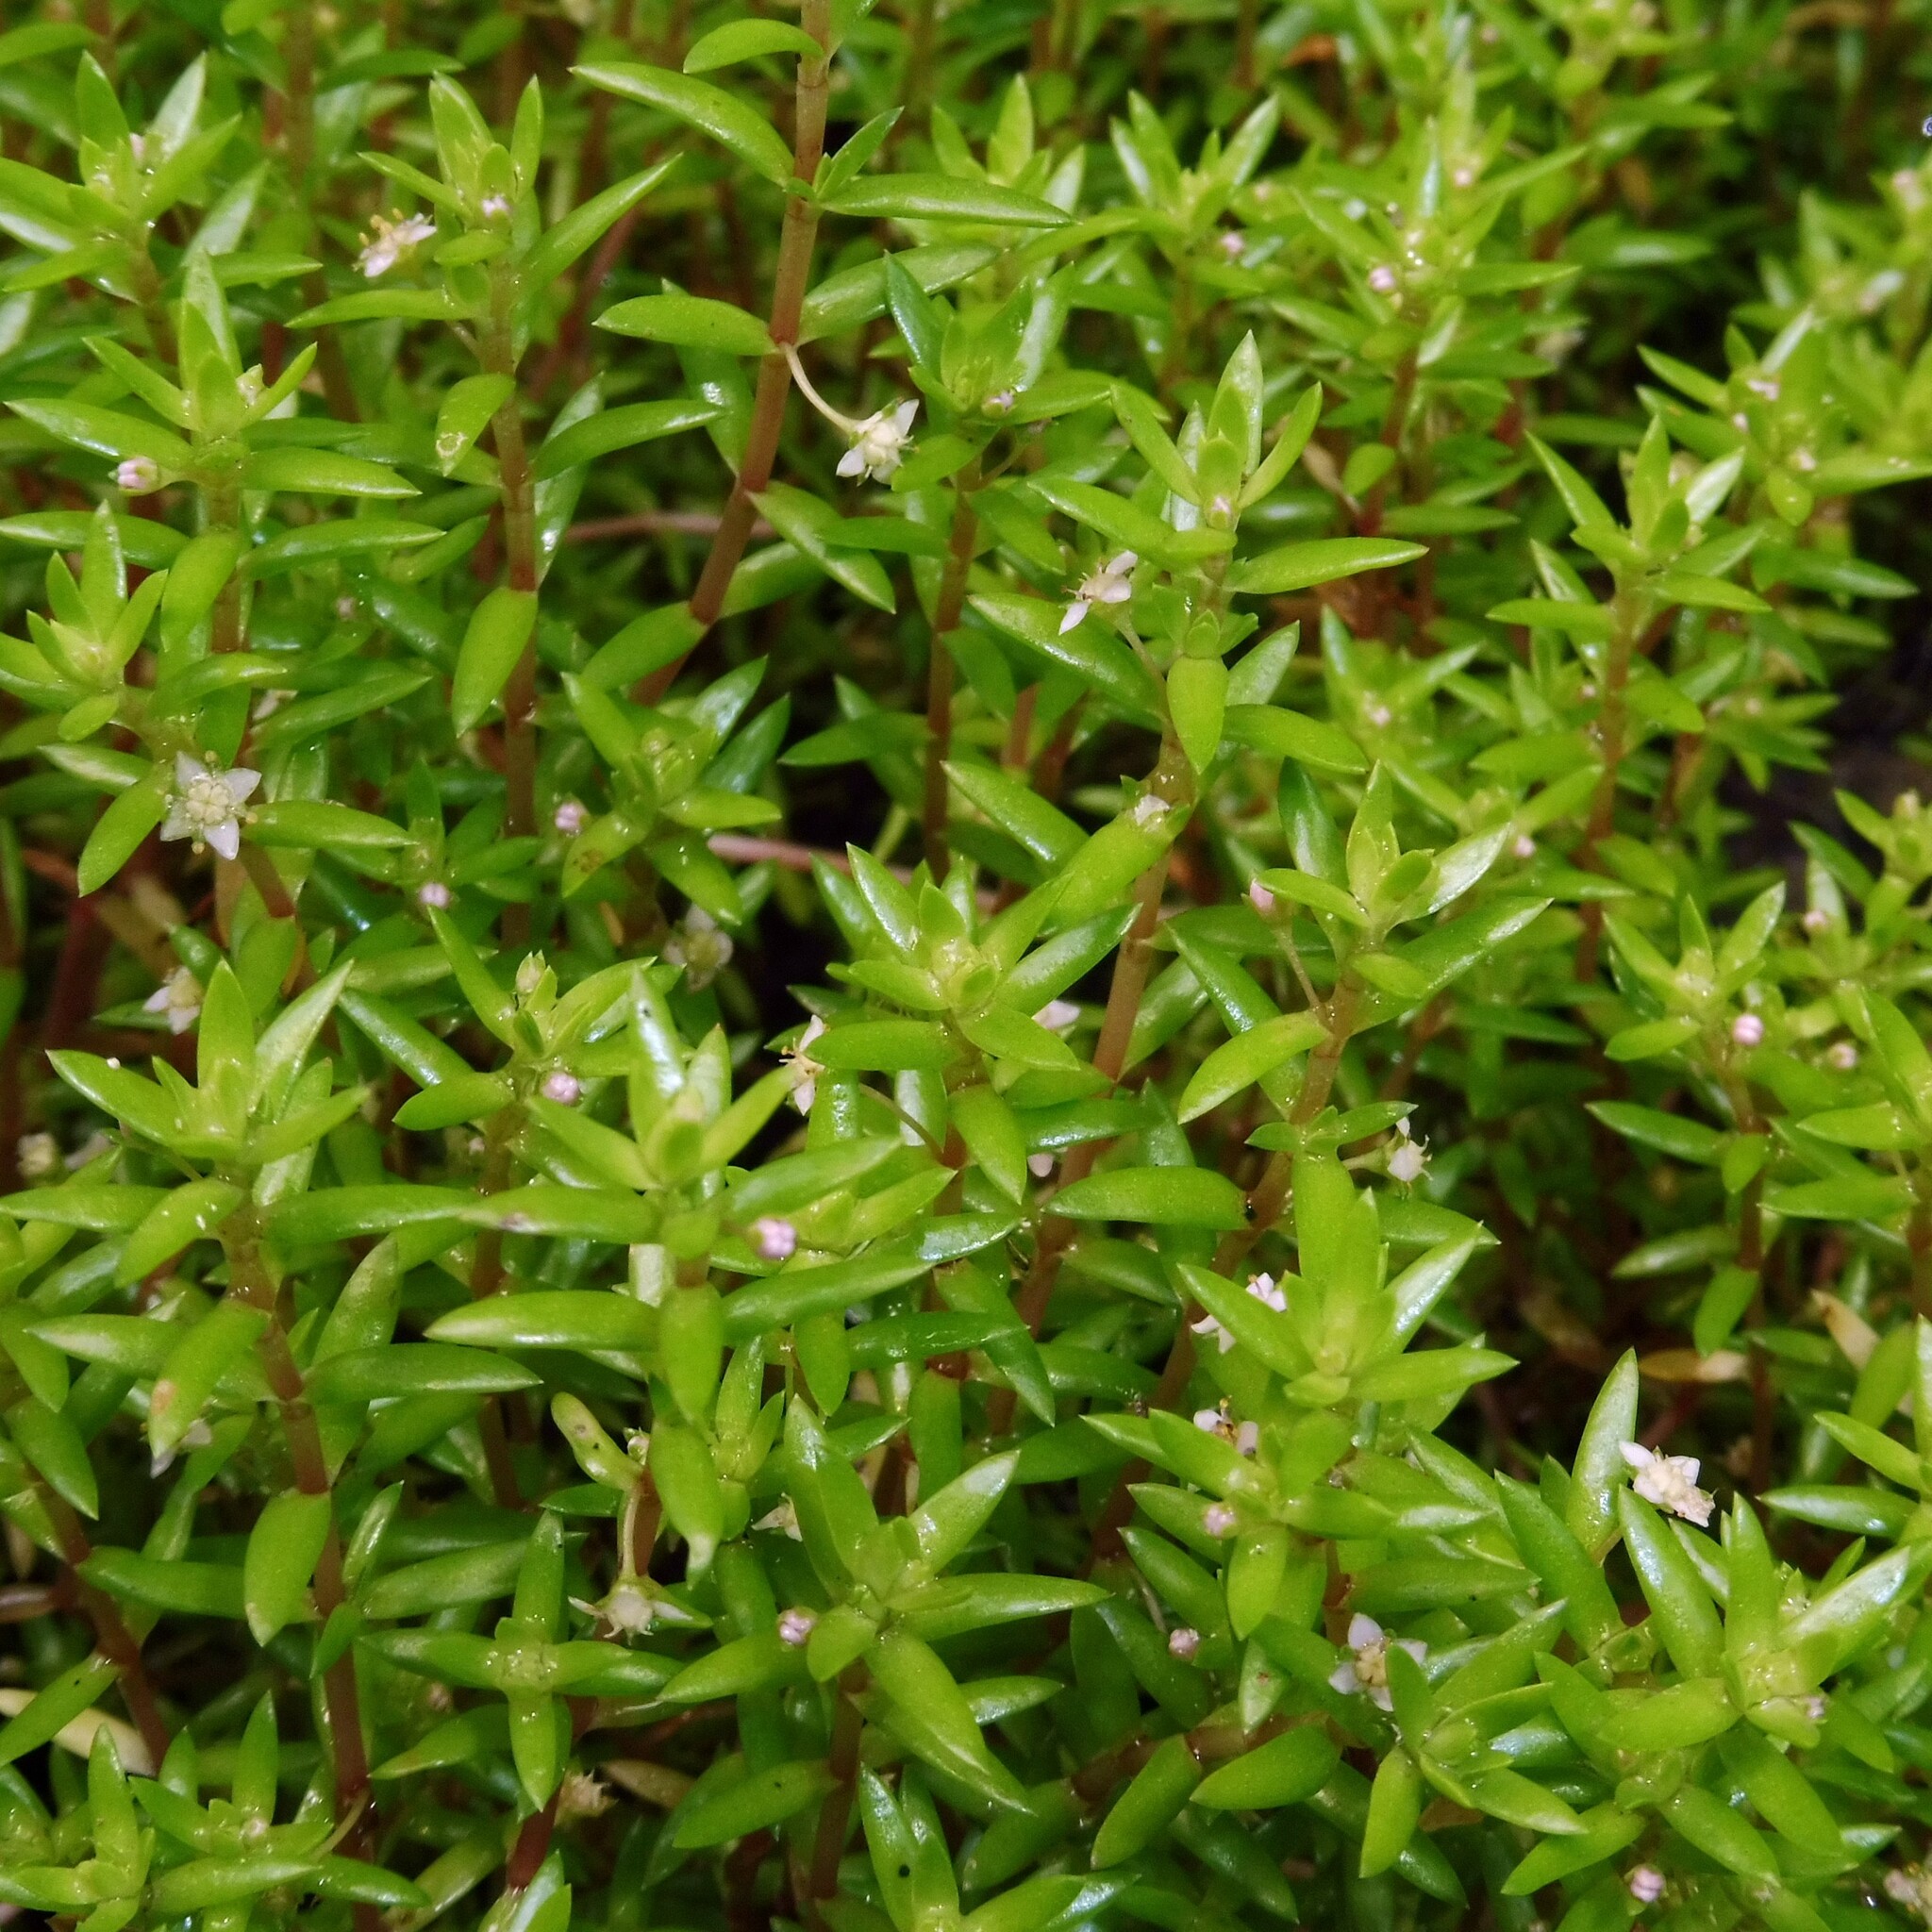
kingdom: Plantae
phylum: Tracheophyta
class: Magnoliopsida
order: Saxifragales
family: Crassulaceae
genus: Crassula
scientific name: Crassula helmsii
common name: New zealand pigmyweed
